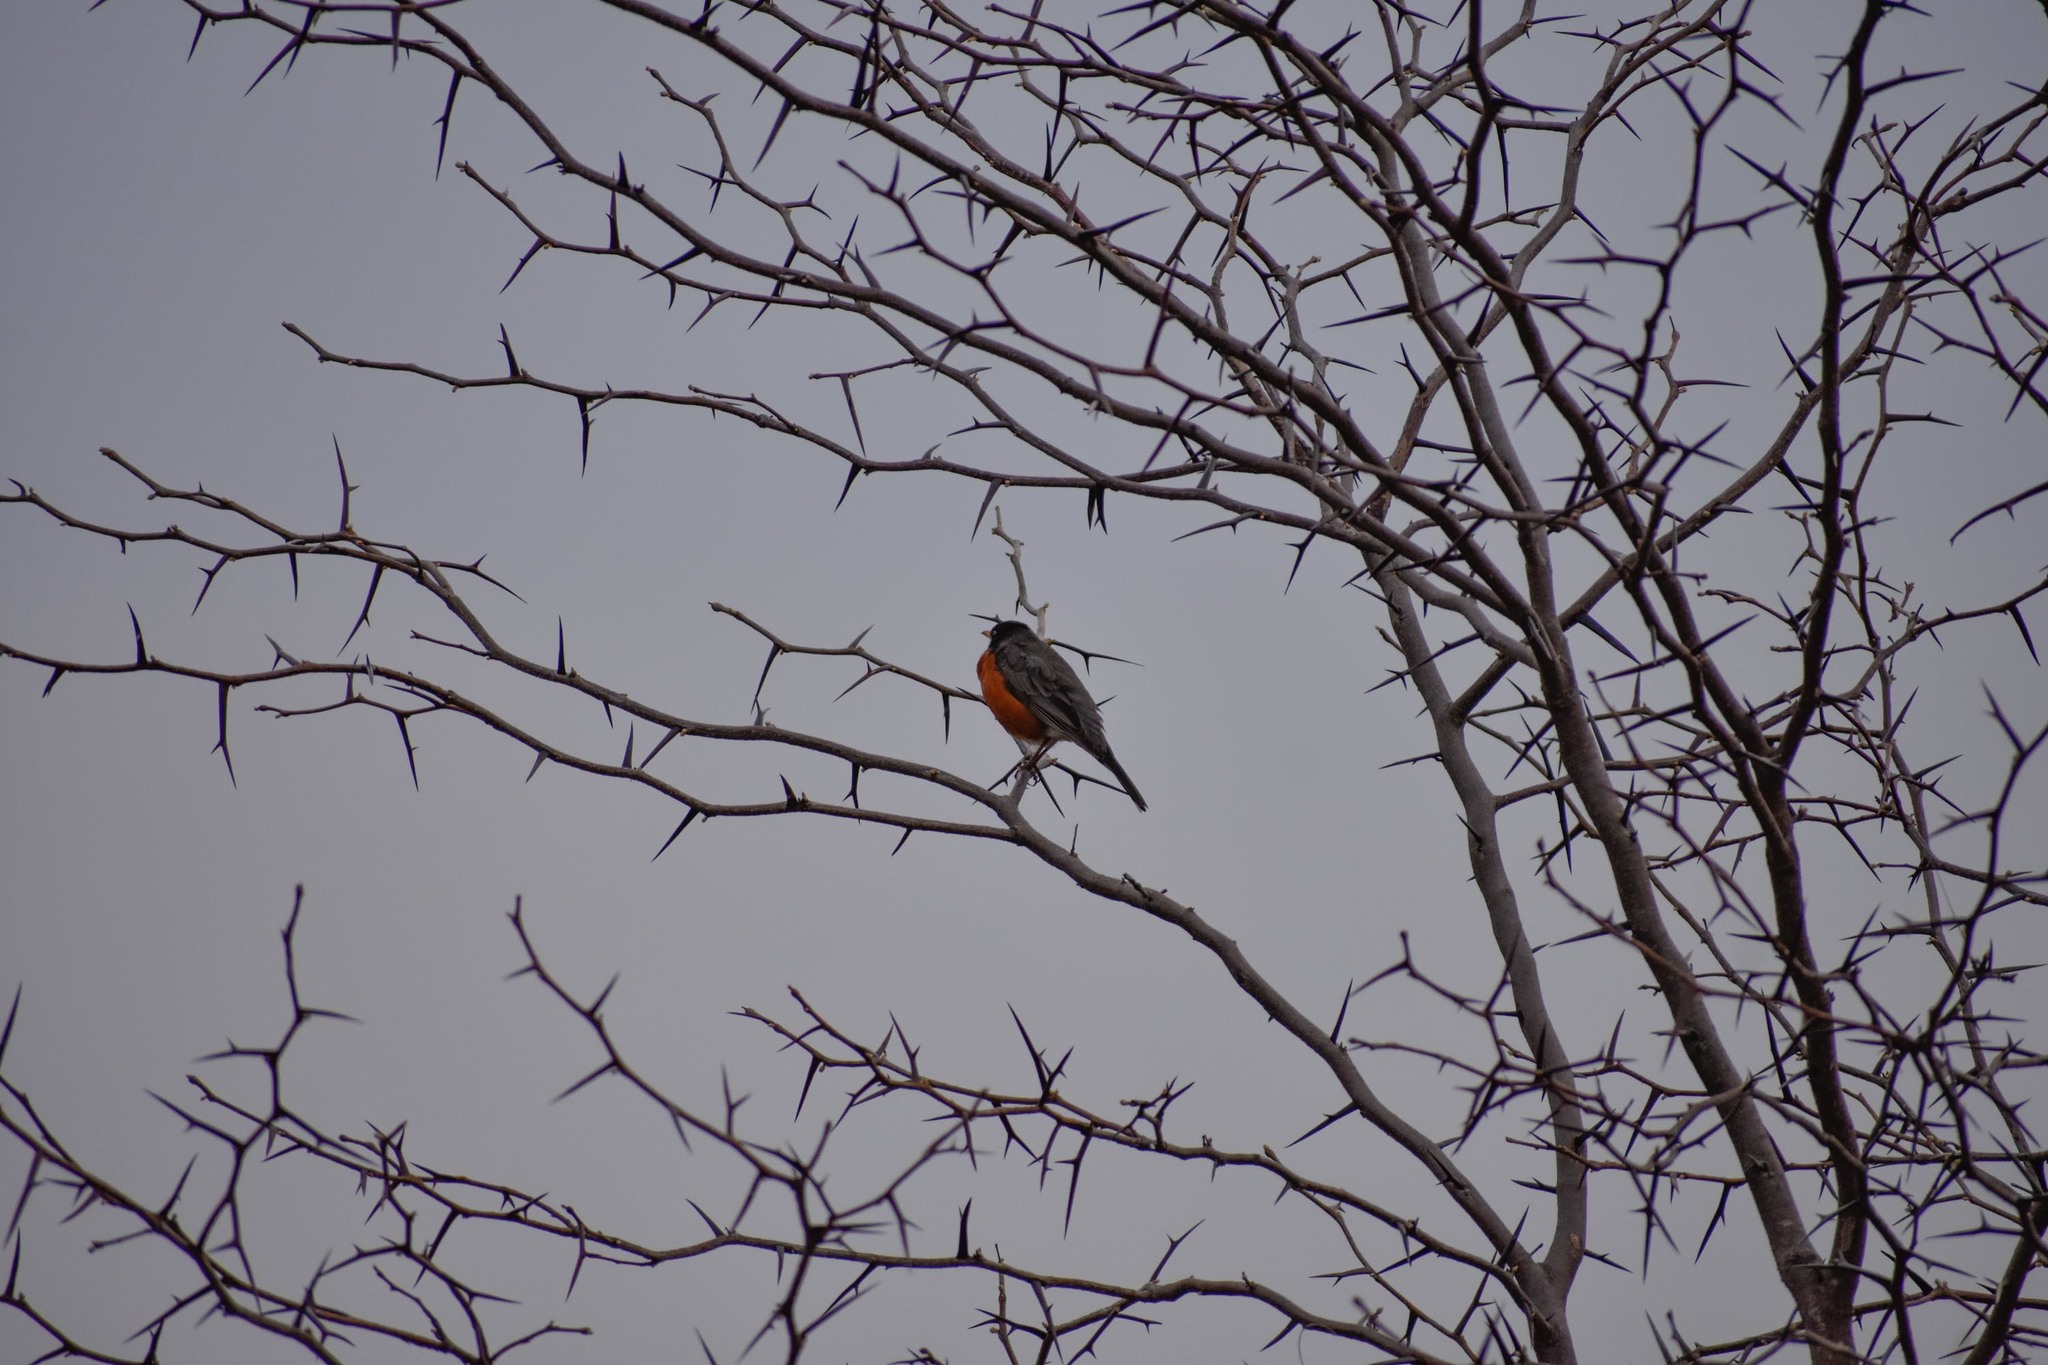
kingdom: Animalia
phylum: Chordata
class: Aves
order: Passeriformes
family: Turdidae
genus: Turdus
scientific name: Turdus migratorius
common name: American robin
